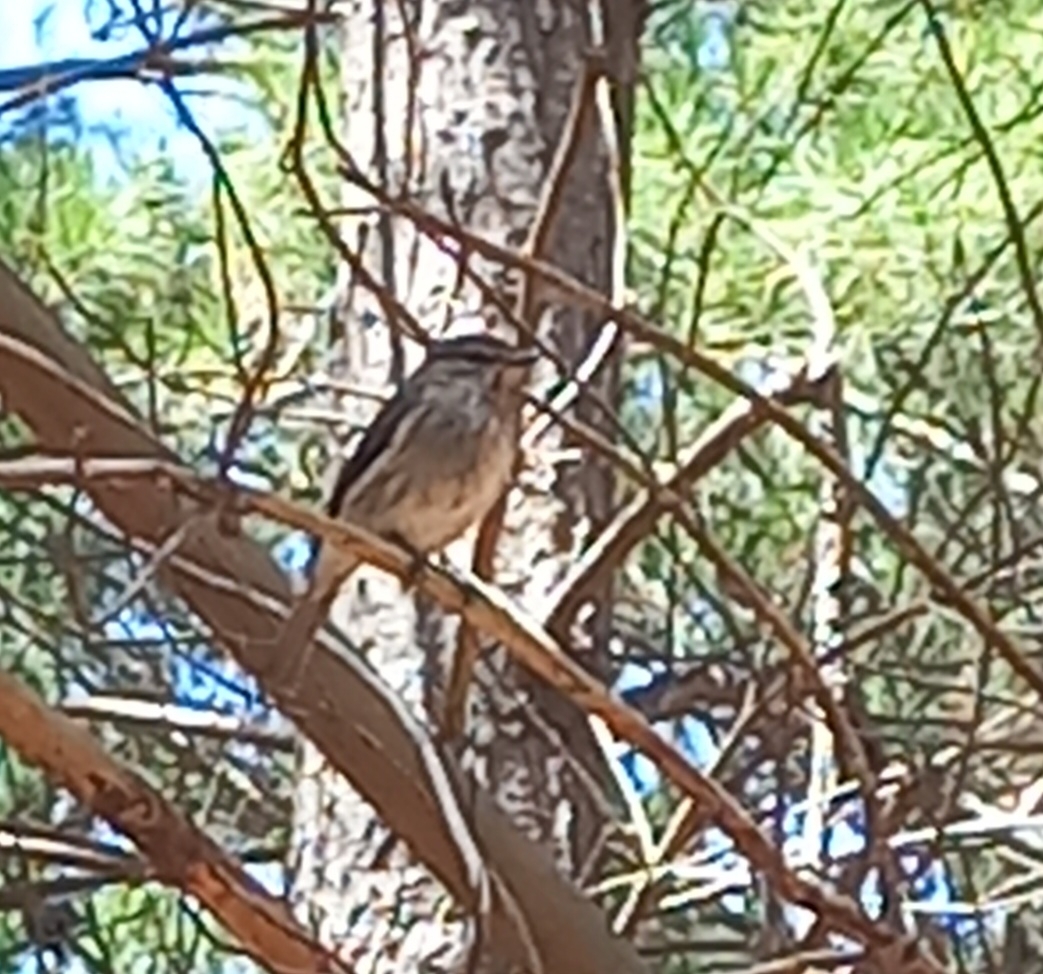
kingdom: Animalia
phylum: Chordata
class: Aves
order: Passeriformes
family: Muscicapidae
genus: Muscicapa
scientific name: Muscicapa adusta
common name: African dusky flycatcher
